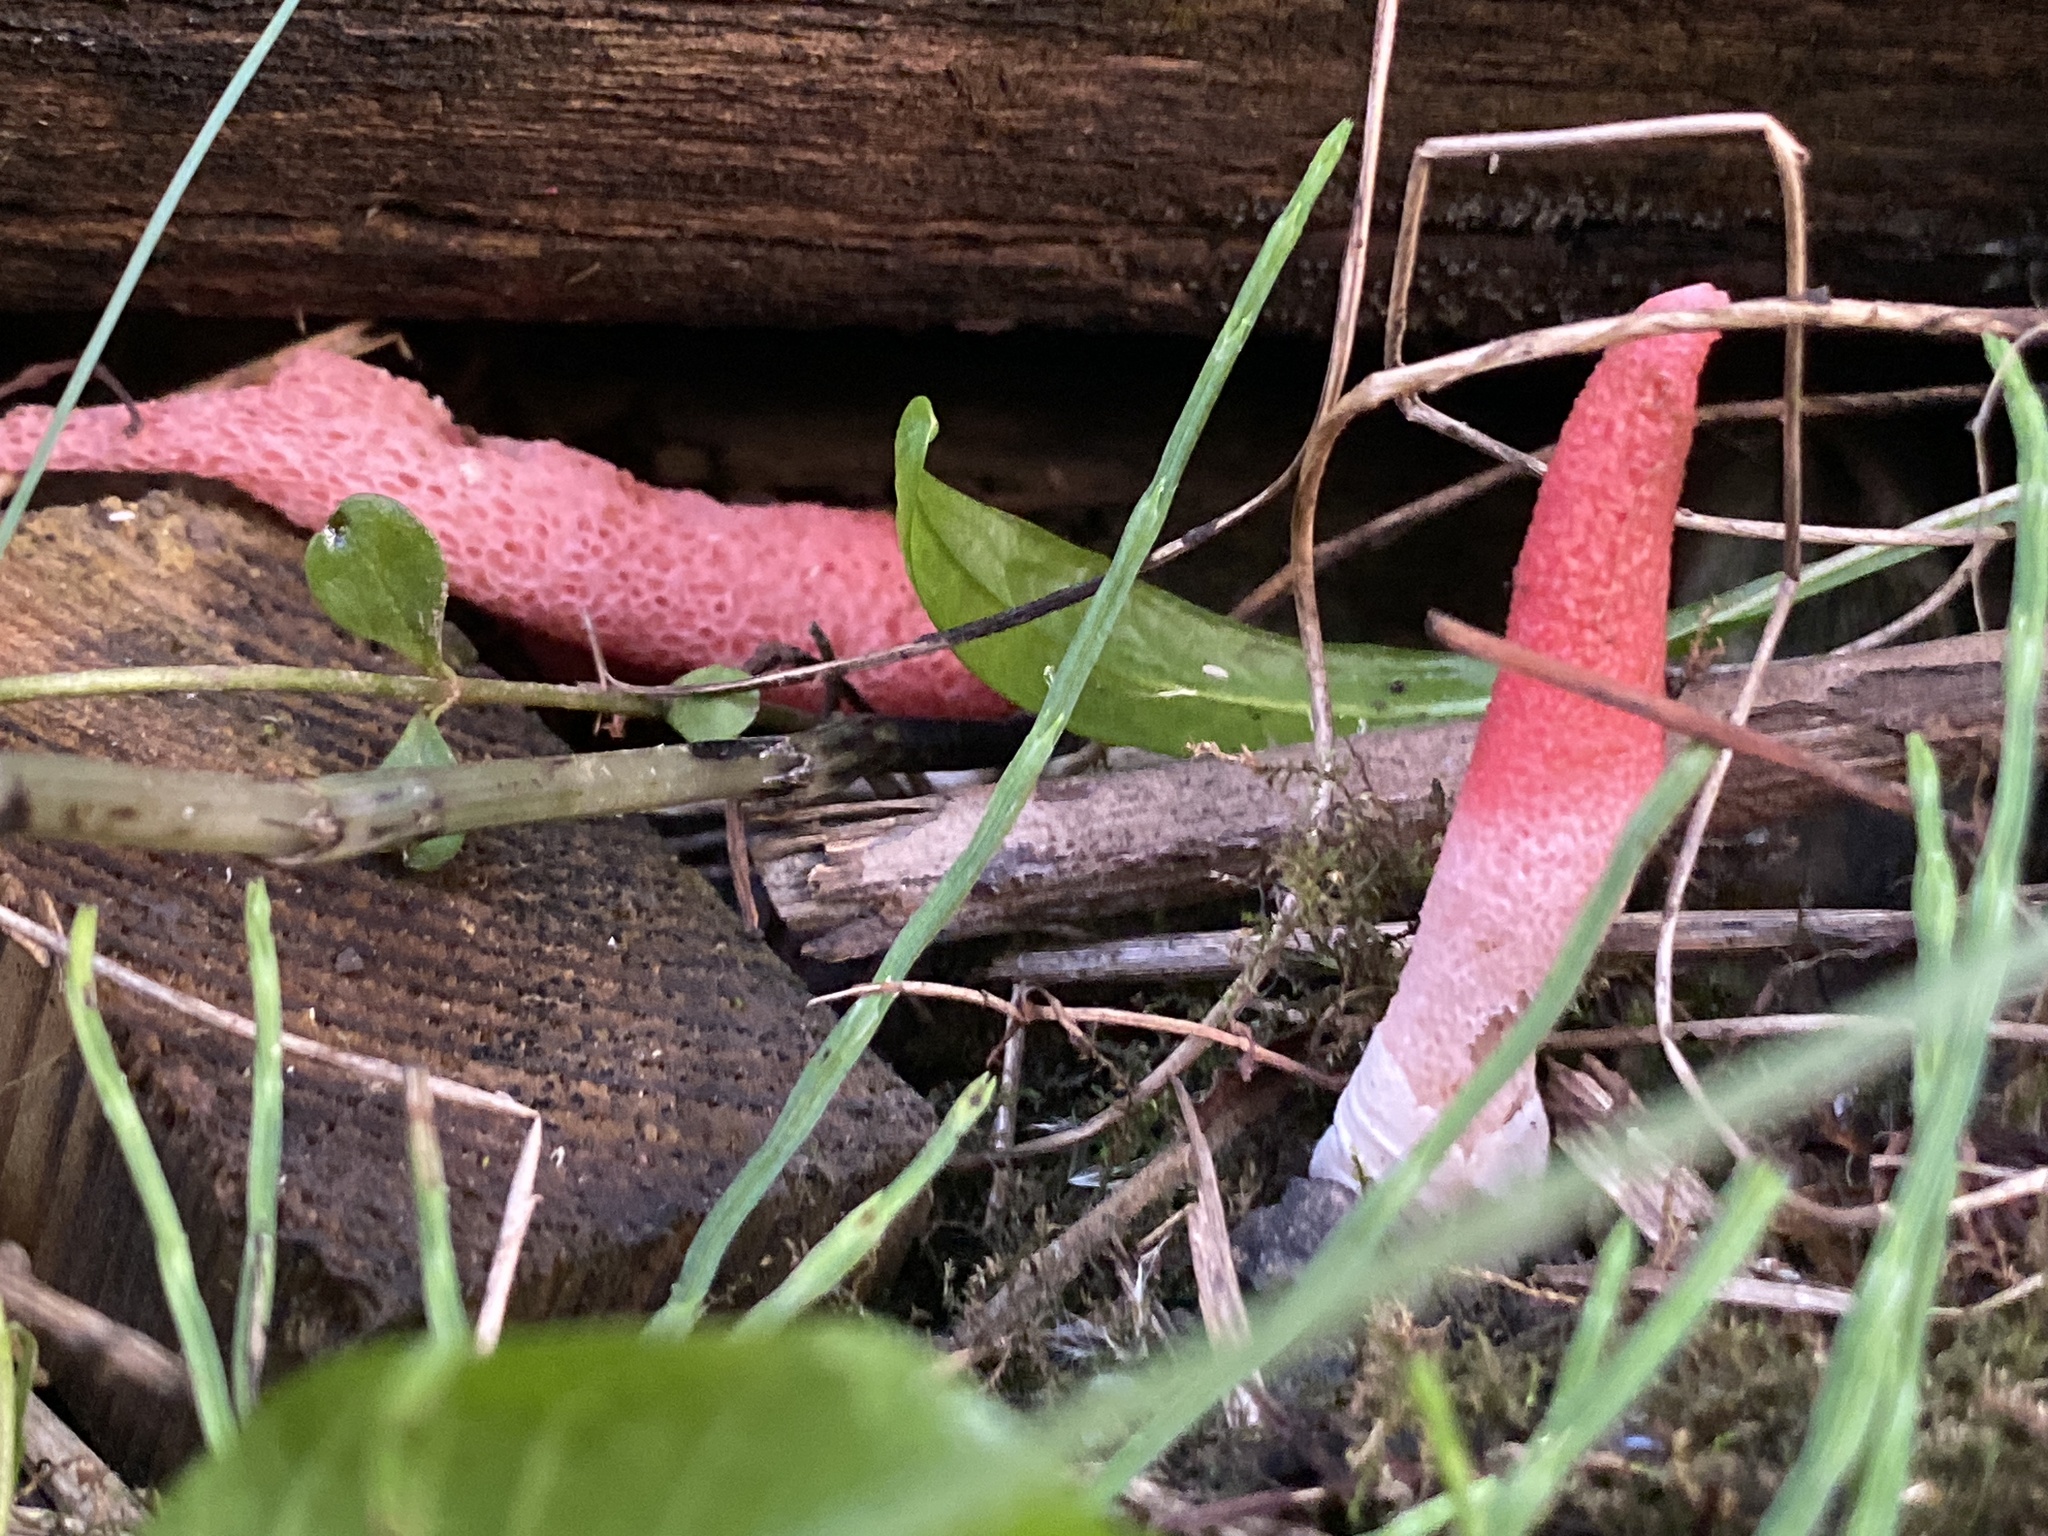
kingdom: Fungi
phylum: Basidiomycota
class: Agaricomycetes
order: Phallales
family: Phallaceae
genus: Mutinus
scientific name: Mutinus ravenelii
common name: Red stinkhorn
